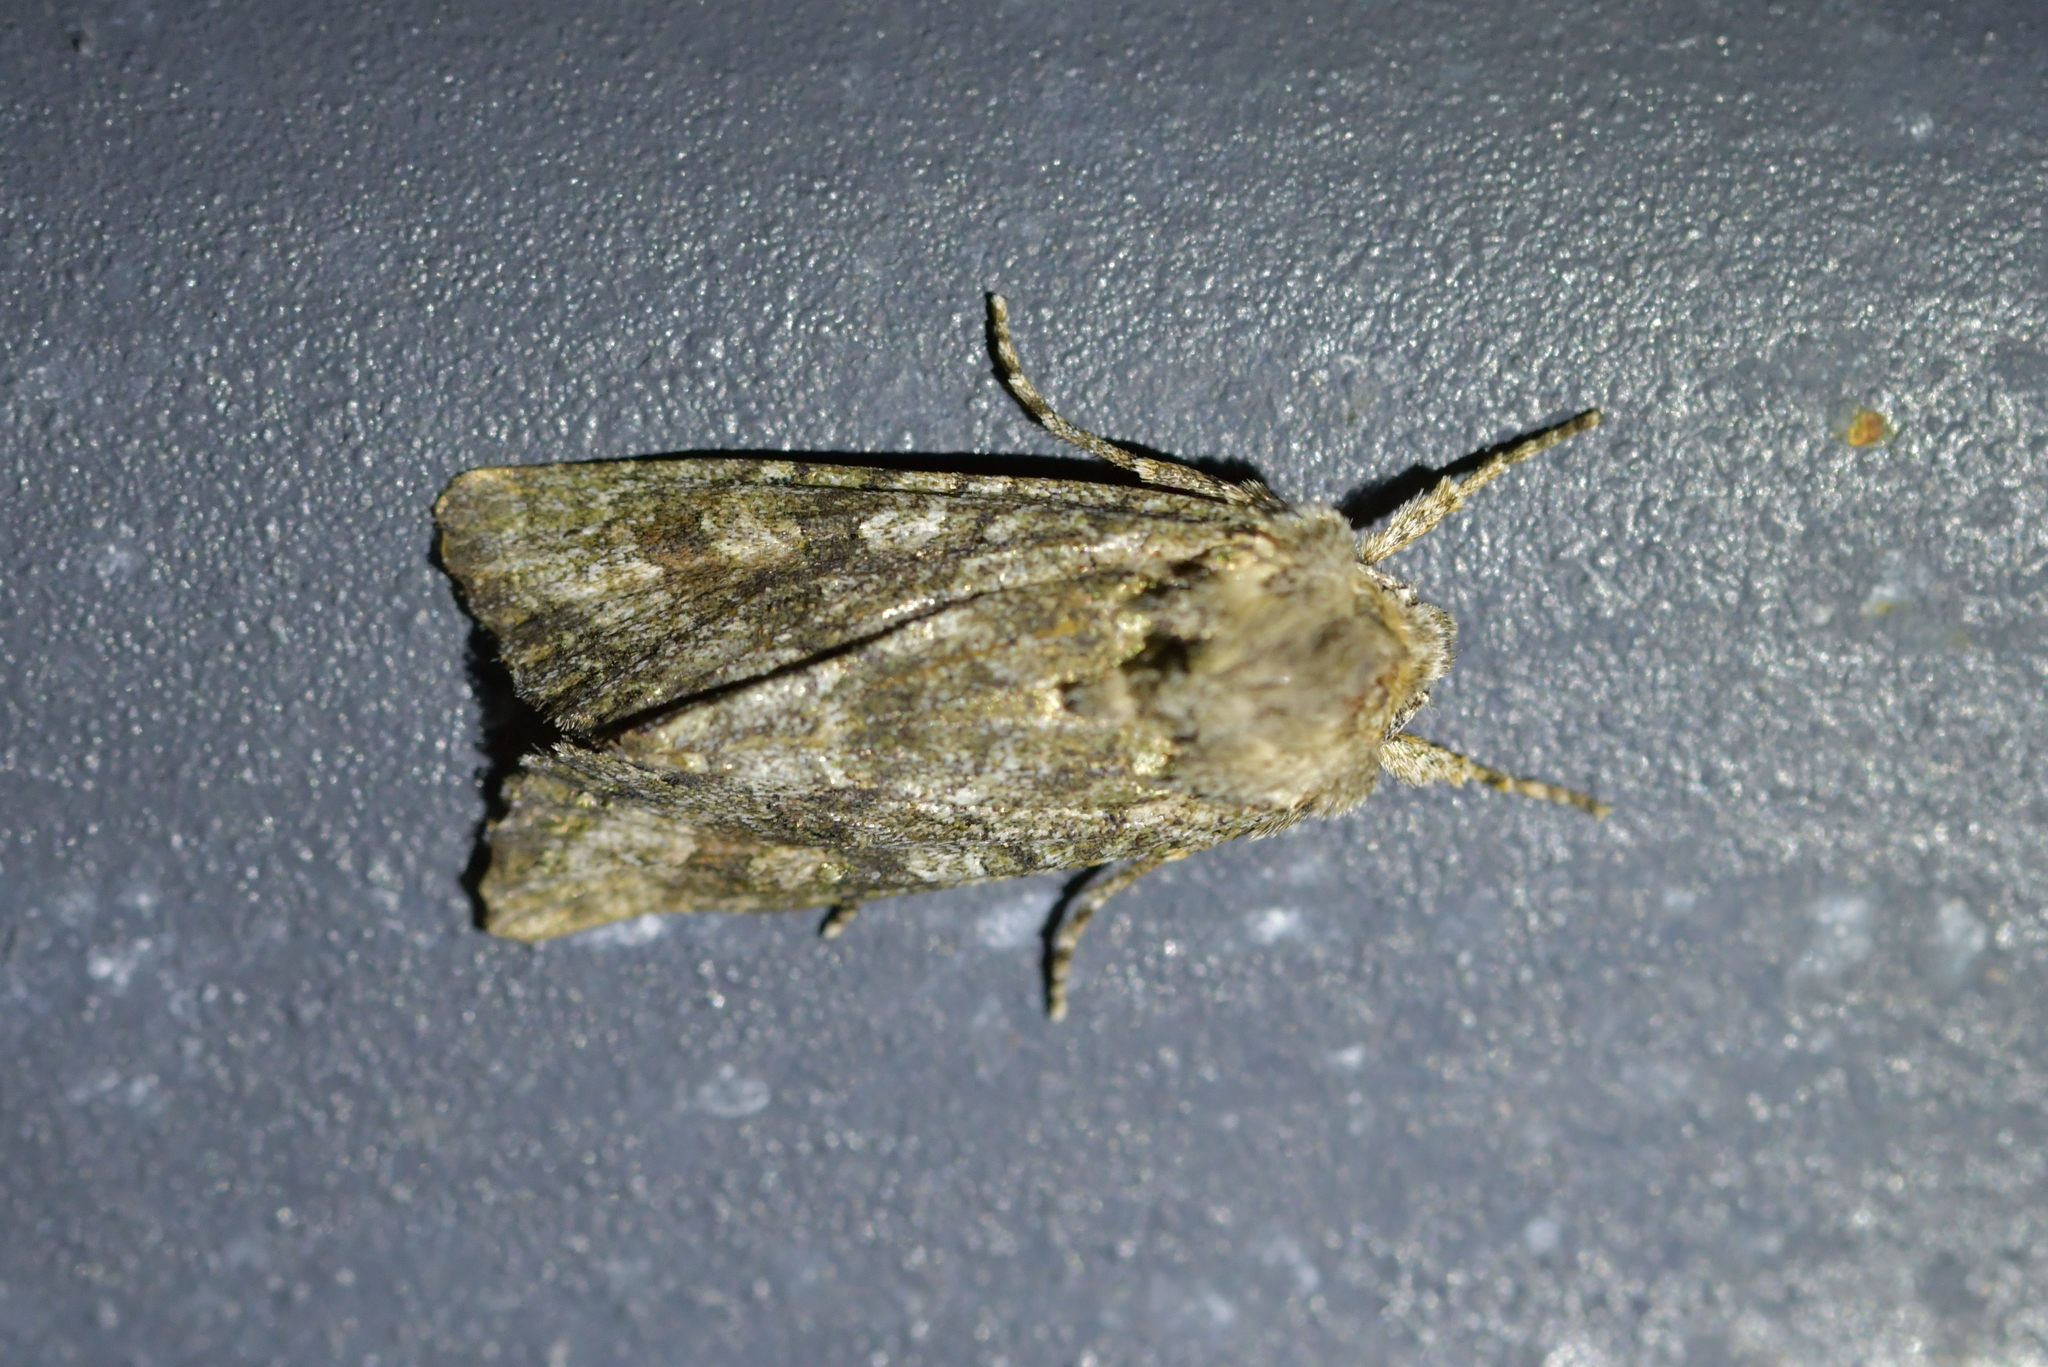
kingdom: Animalia
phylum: Arthropoda
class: Insecta
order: Lepidoptera
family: Noctuidae
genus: Ichneutica
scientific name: Ichneutica mutans
